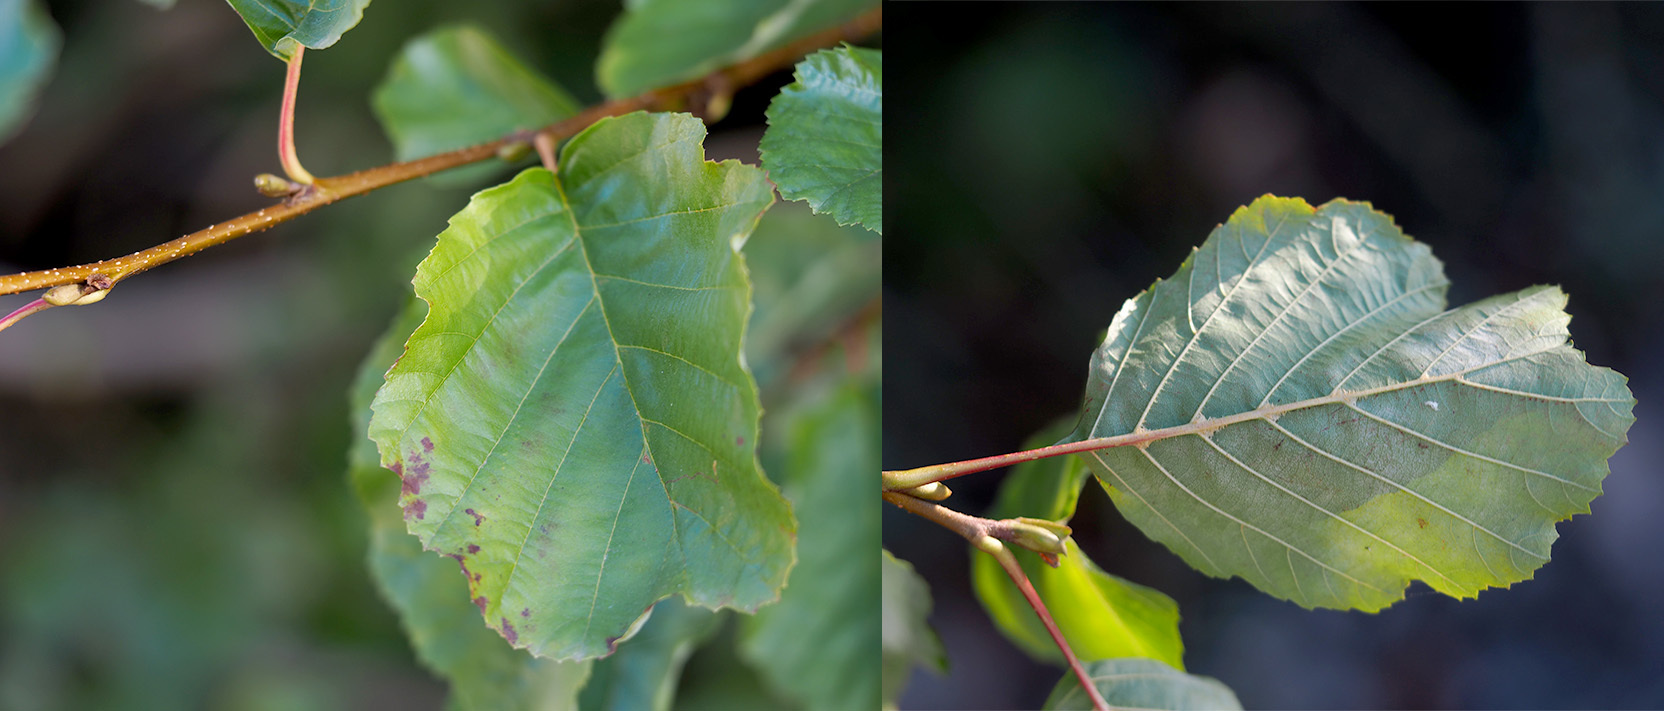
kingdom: Plantae
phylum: Tracheophyta
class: Magnoliopsida
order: Fagales
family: Betulaceae
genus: Alnus
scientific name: Alnus glutinosa
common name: Black alder
